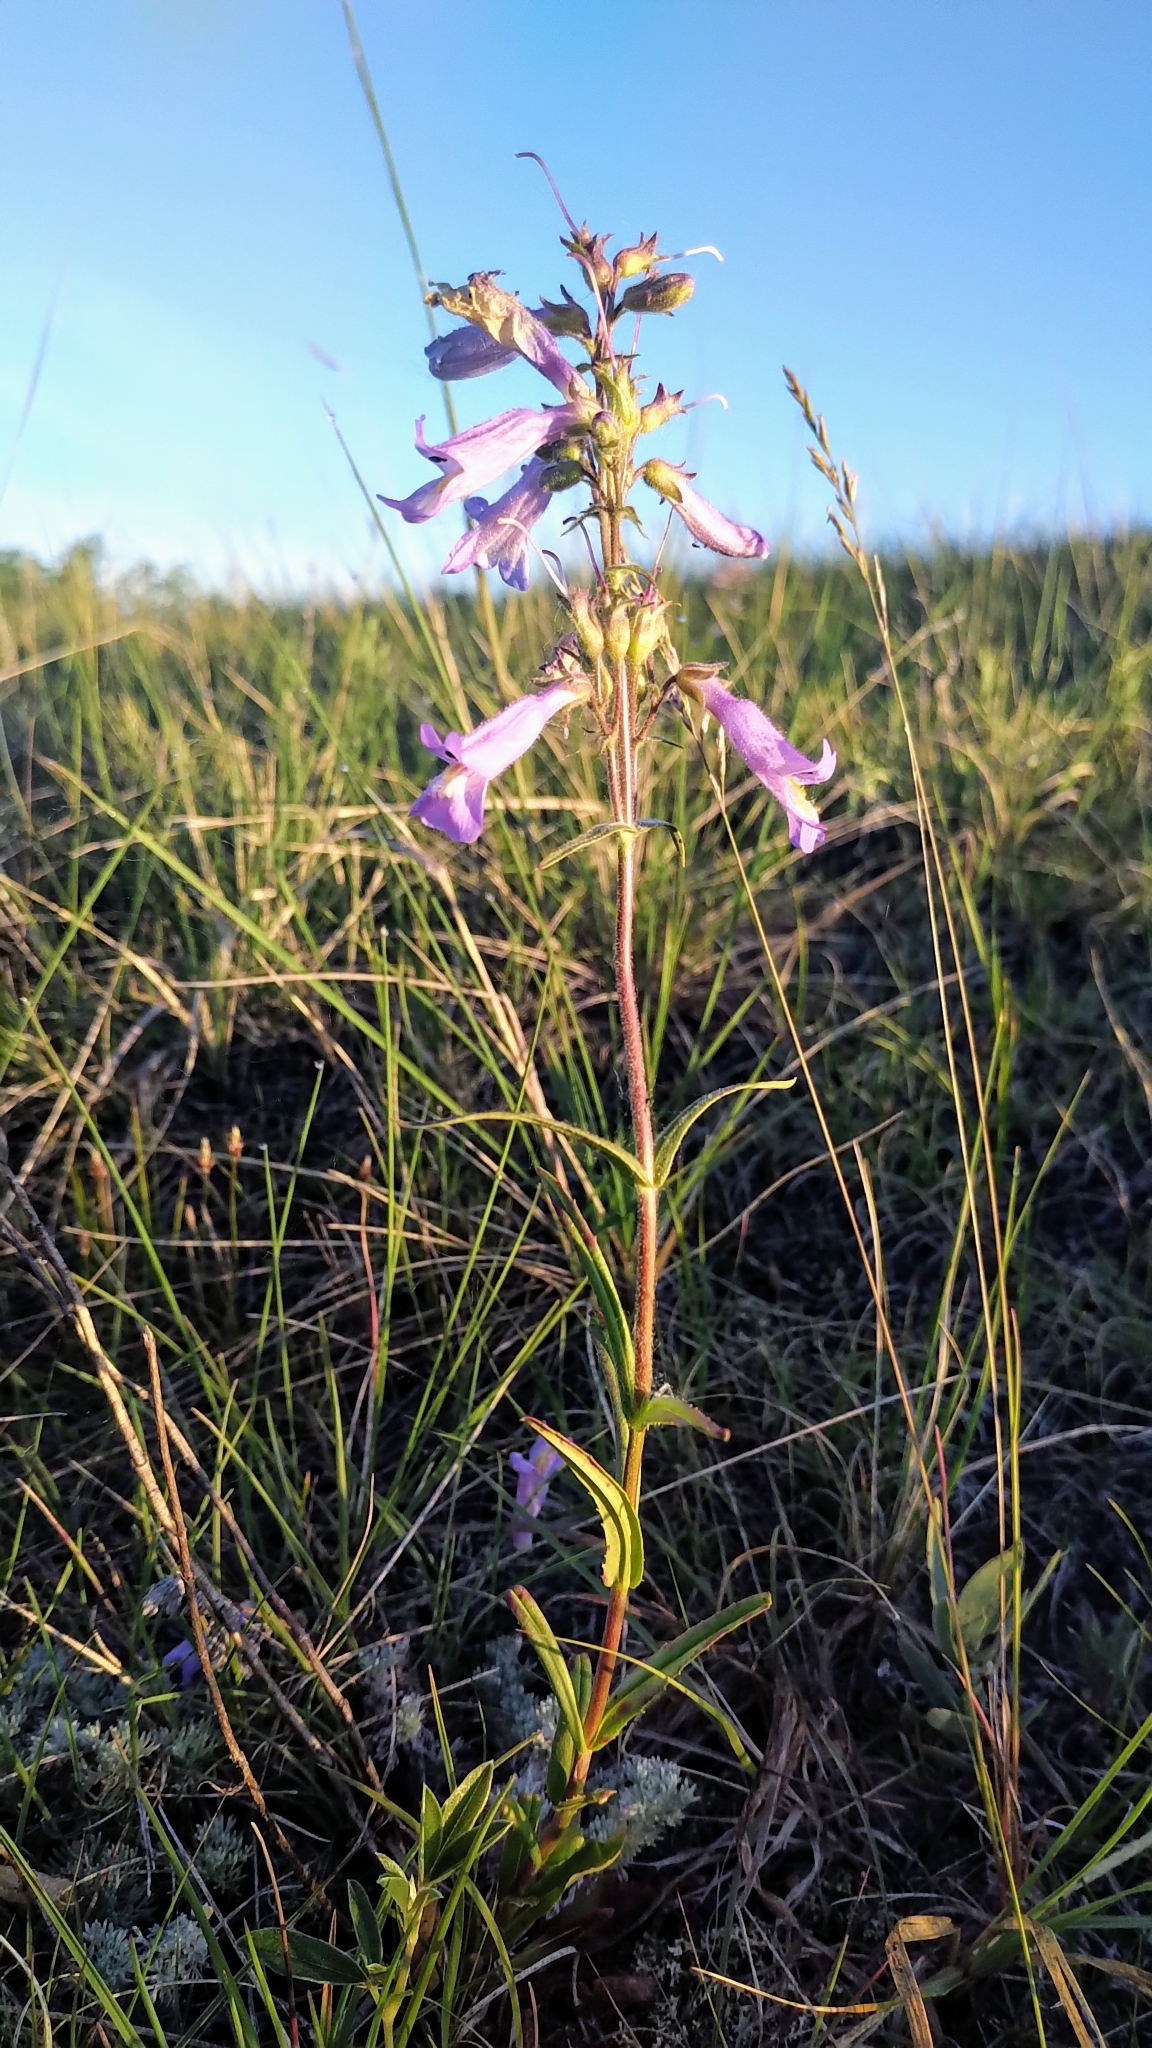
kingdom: Plantae
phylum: Tracheophyta
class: Magnoliopsida
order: Lamiales
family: Plantaginaceae
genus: Penstemon
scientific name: Penstemon gracilis
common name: Slender beardtongue
